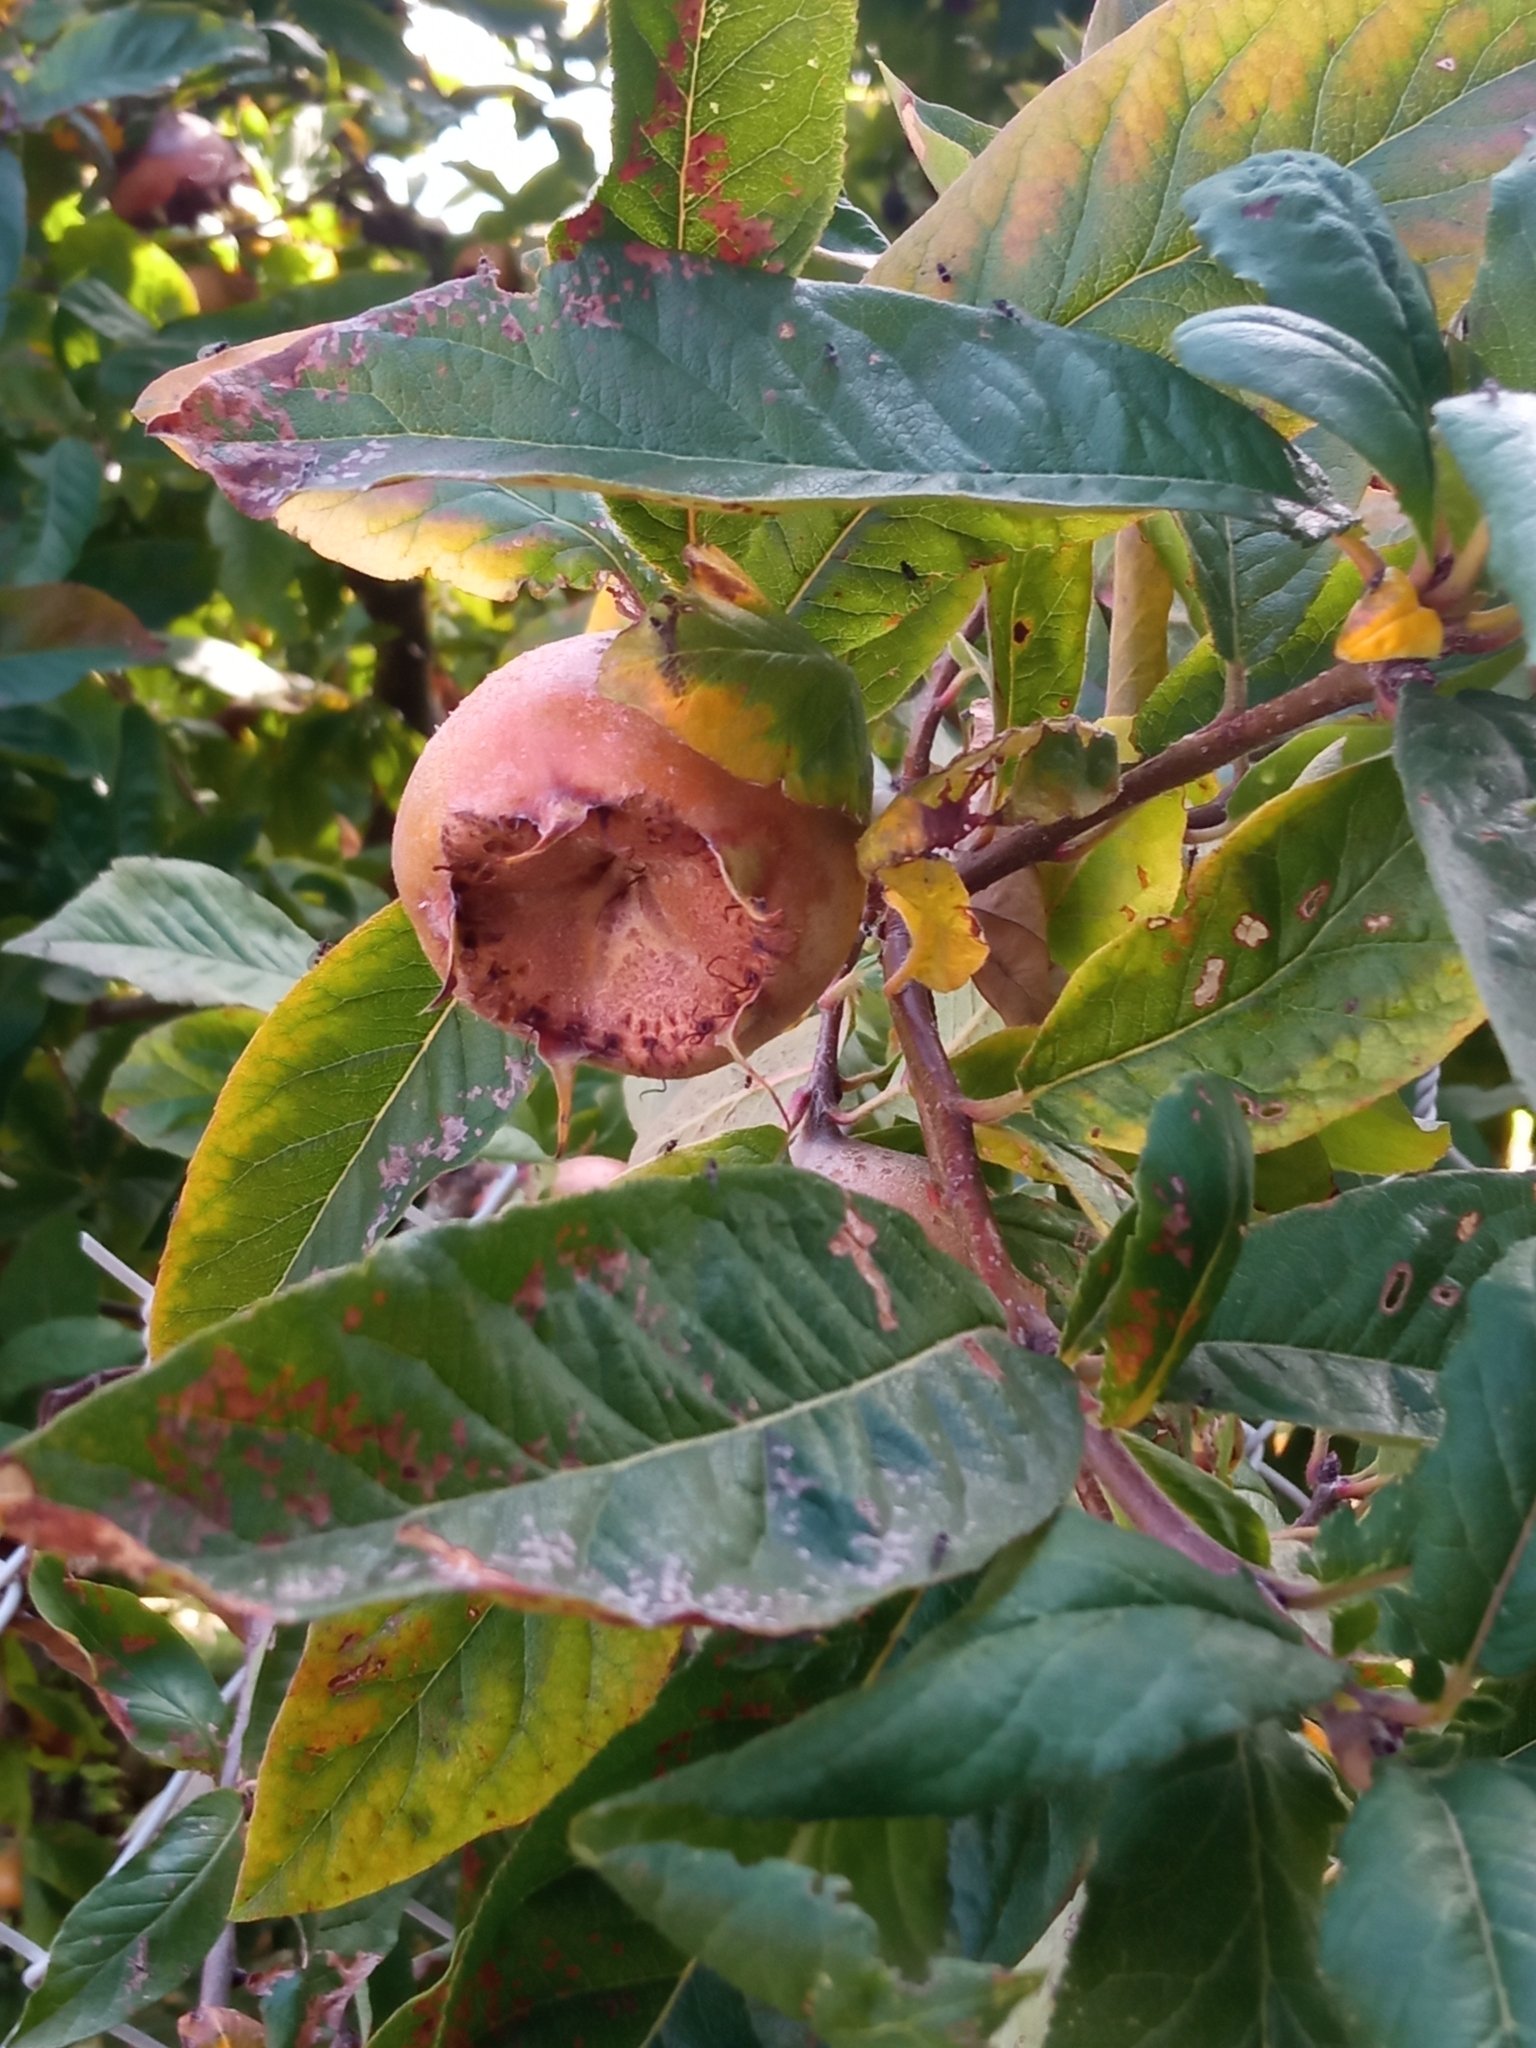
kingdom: Plantae
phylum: Tracheophyta
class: Magnoliopsida
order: Rosales
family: Rosaceae
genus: Mespilus
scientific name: Mespilus germanica
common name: Medlar
